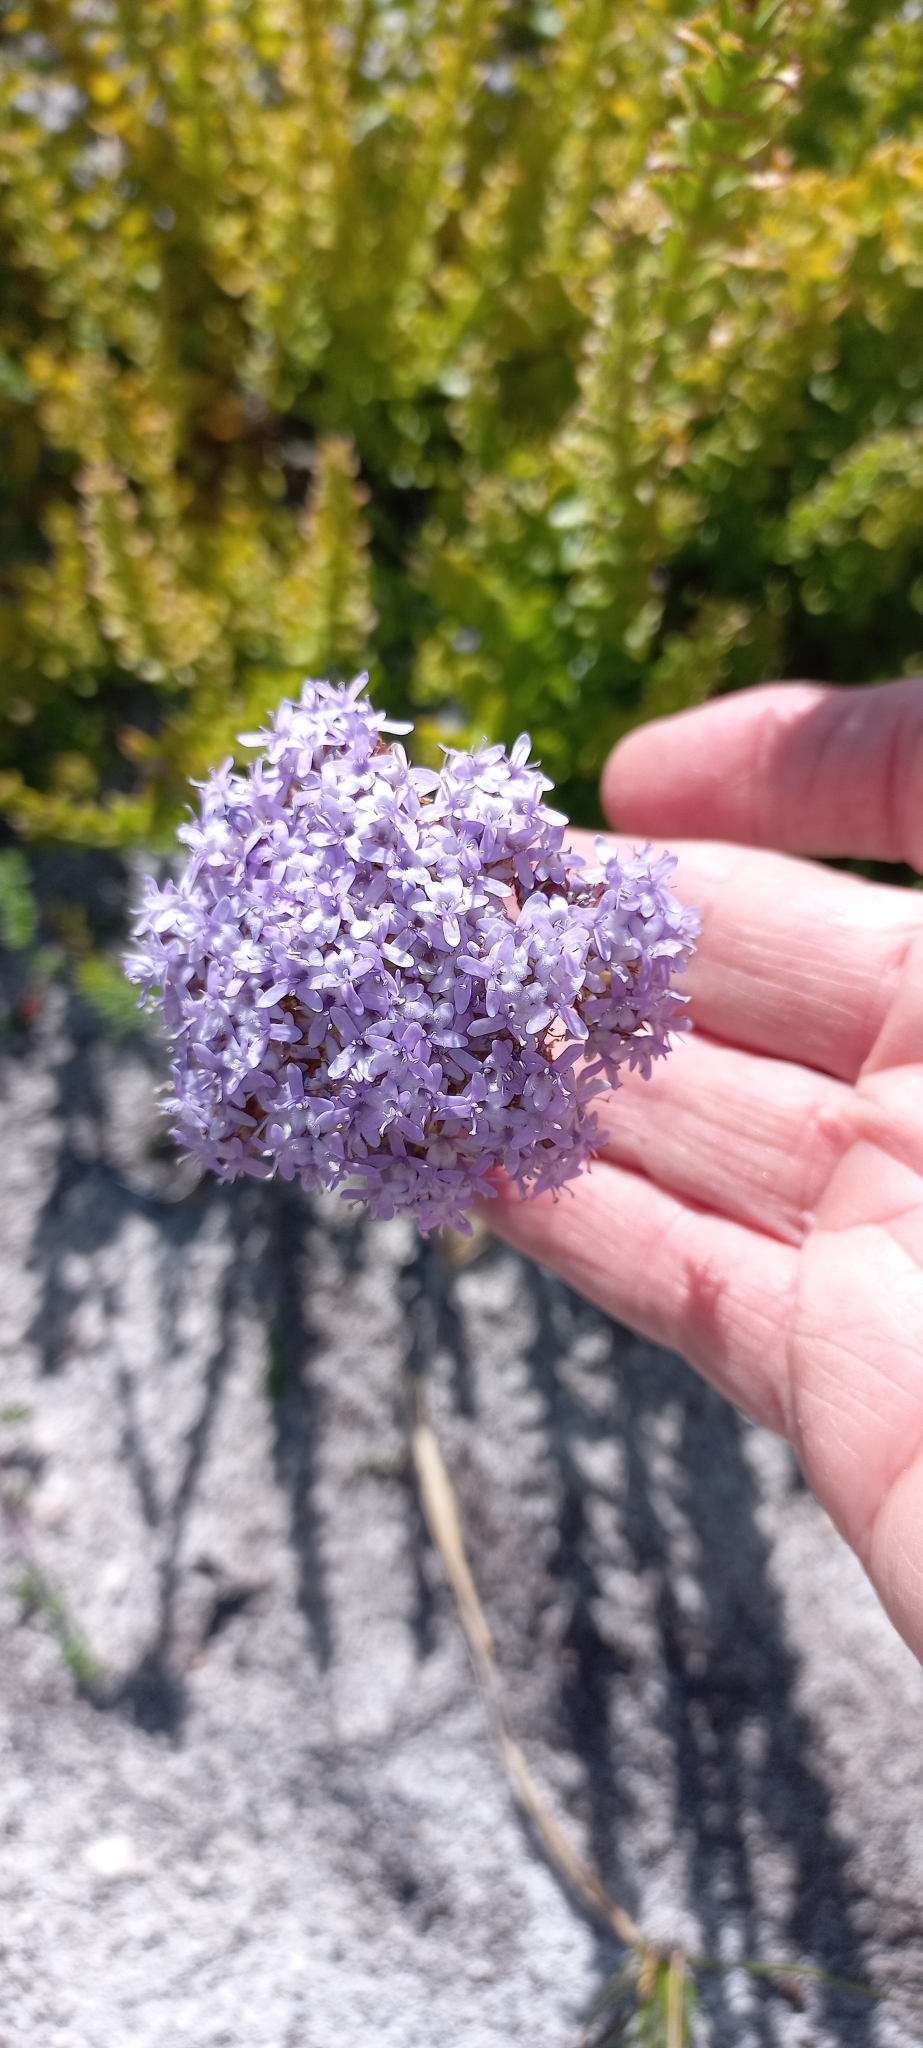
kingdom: Plantae
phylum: Tracheophyta
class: Magnoliopsida
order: Lamiales
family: Scrophulariaceae
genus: Pseudoselago
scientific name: Pseudoselago serrata
